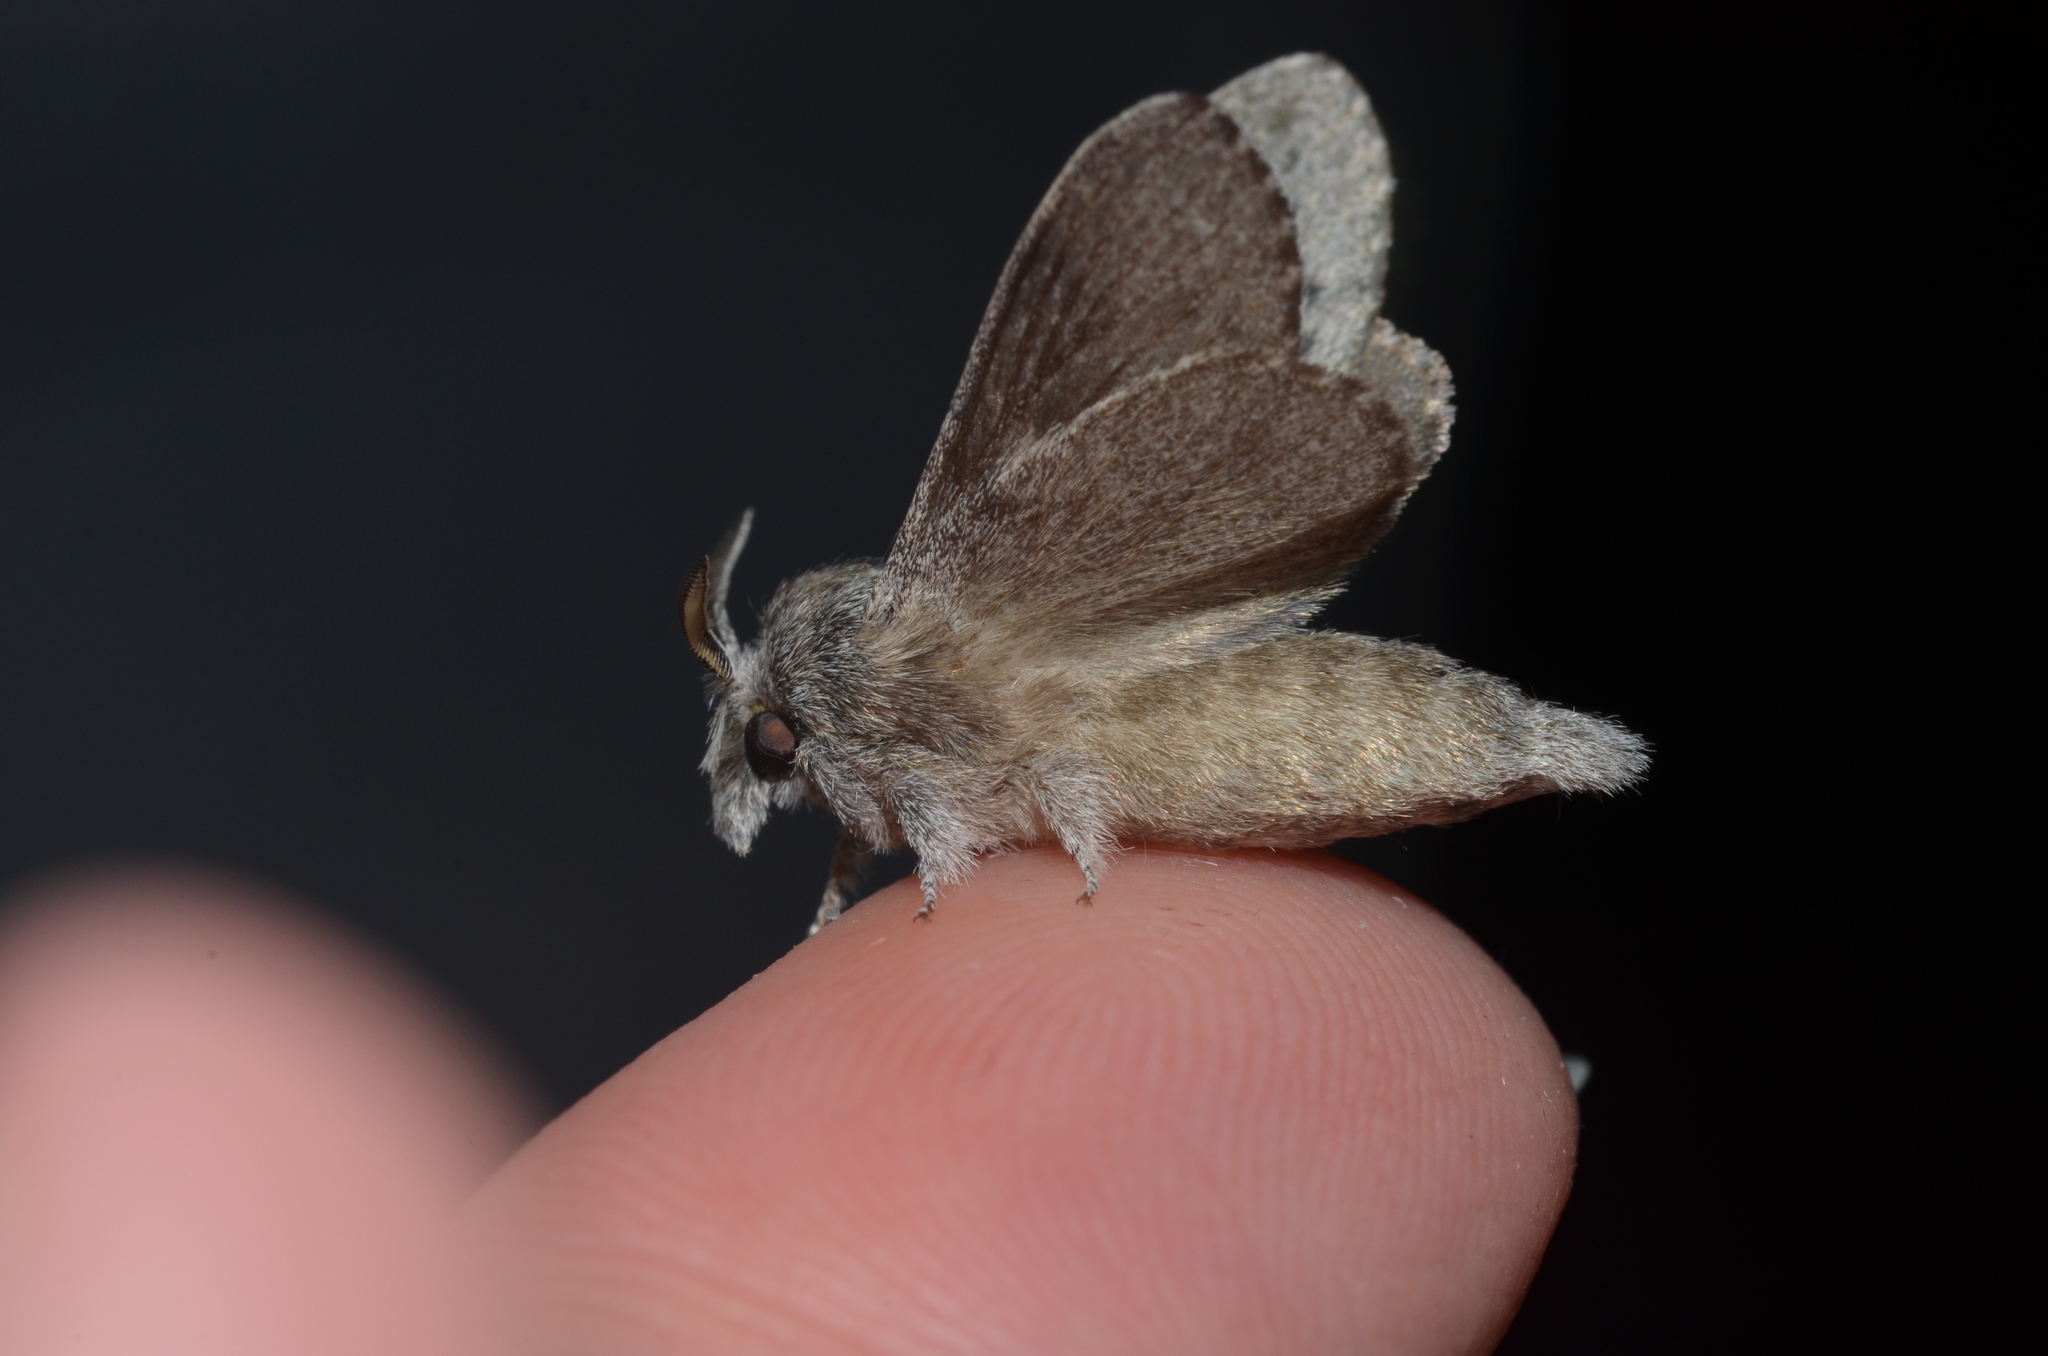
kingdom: Animalia
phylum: Arthropoda
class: Insecta
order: Lepidoptera
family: Lasiocampidae
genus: Heteropacha
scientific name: Heteropacha rileyana
